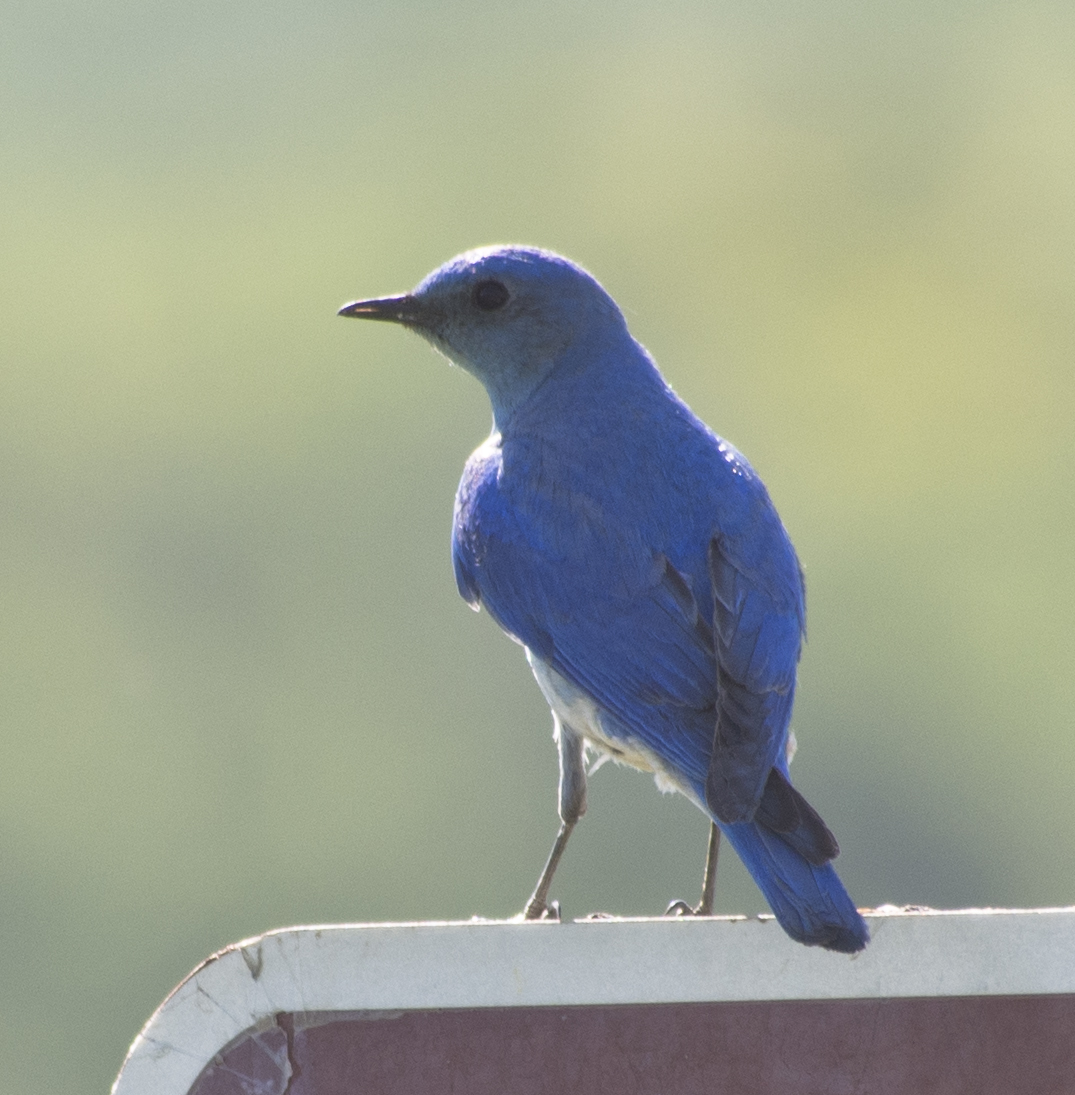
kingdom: Animalia
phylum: Chordata
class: Aves
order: Passeriformes
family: Turdidae
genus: Sialia
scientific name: Sialia currucoides
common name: Mountain bluebird
